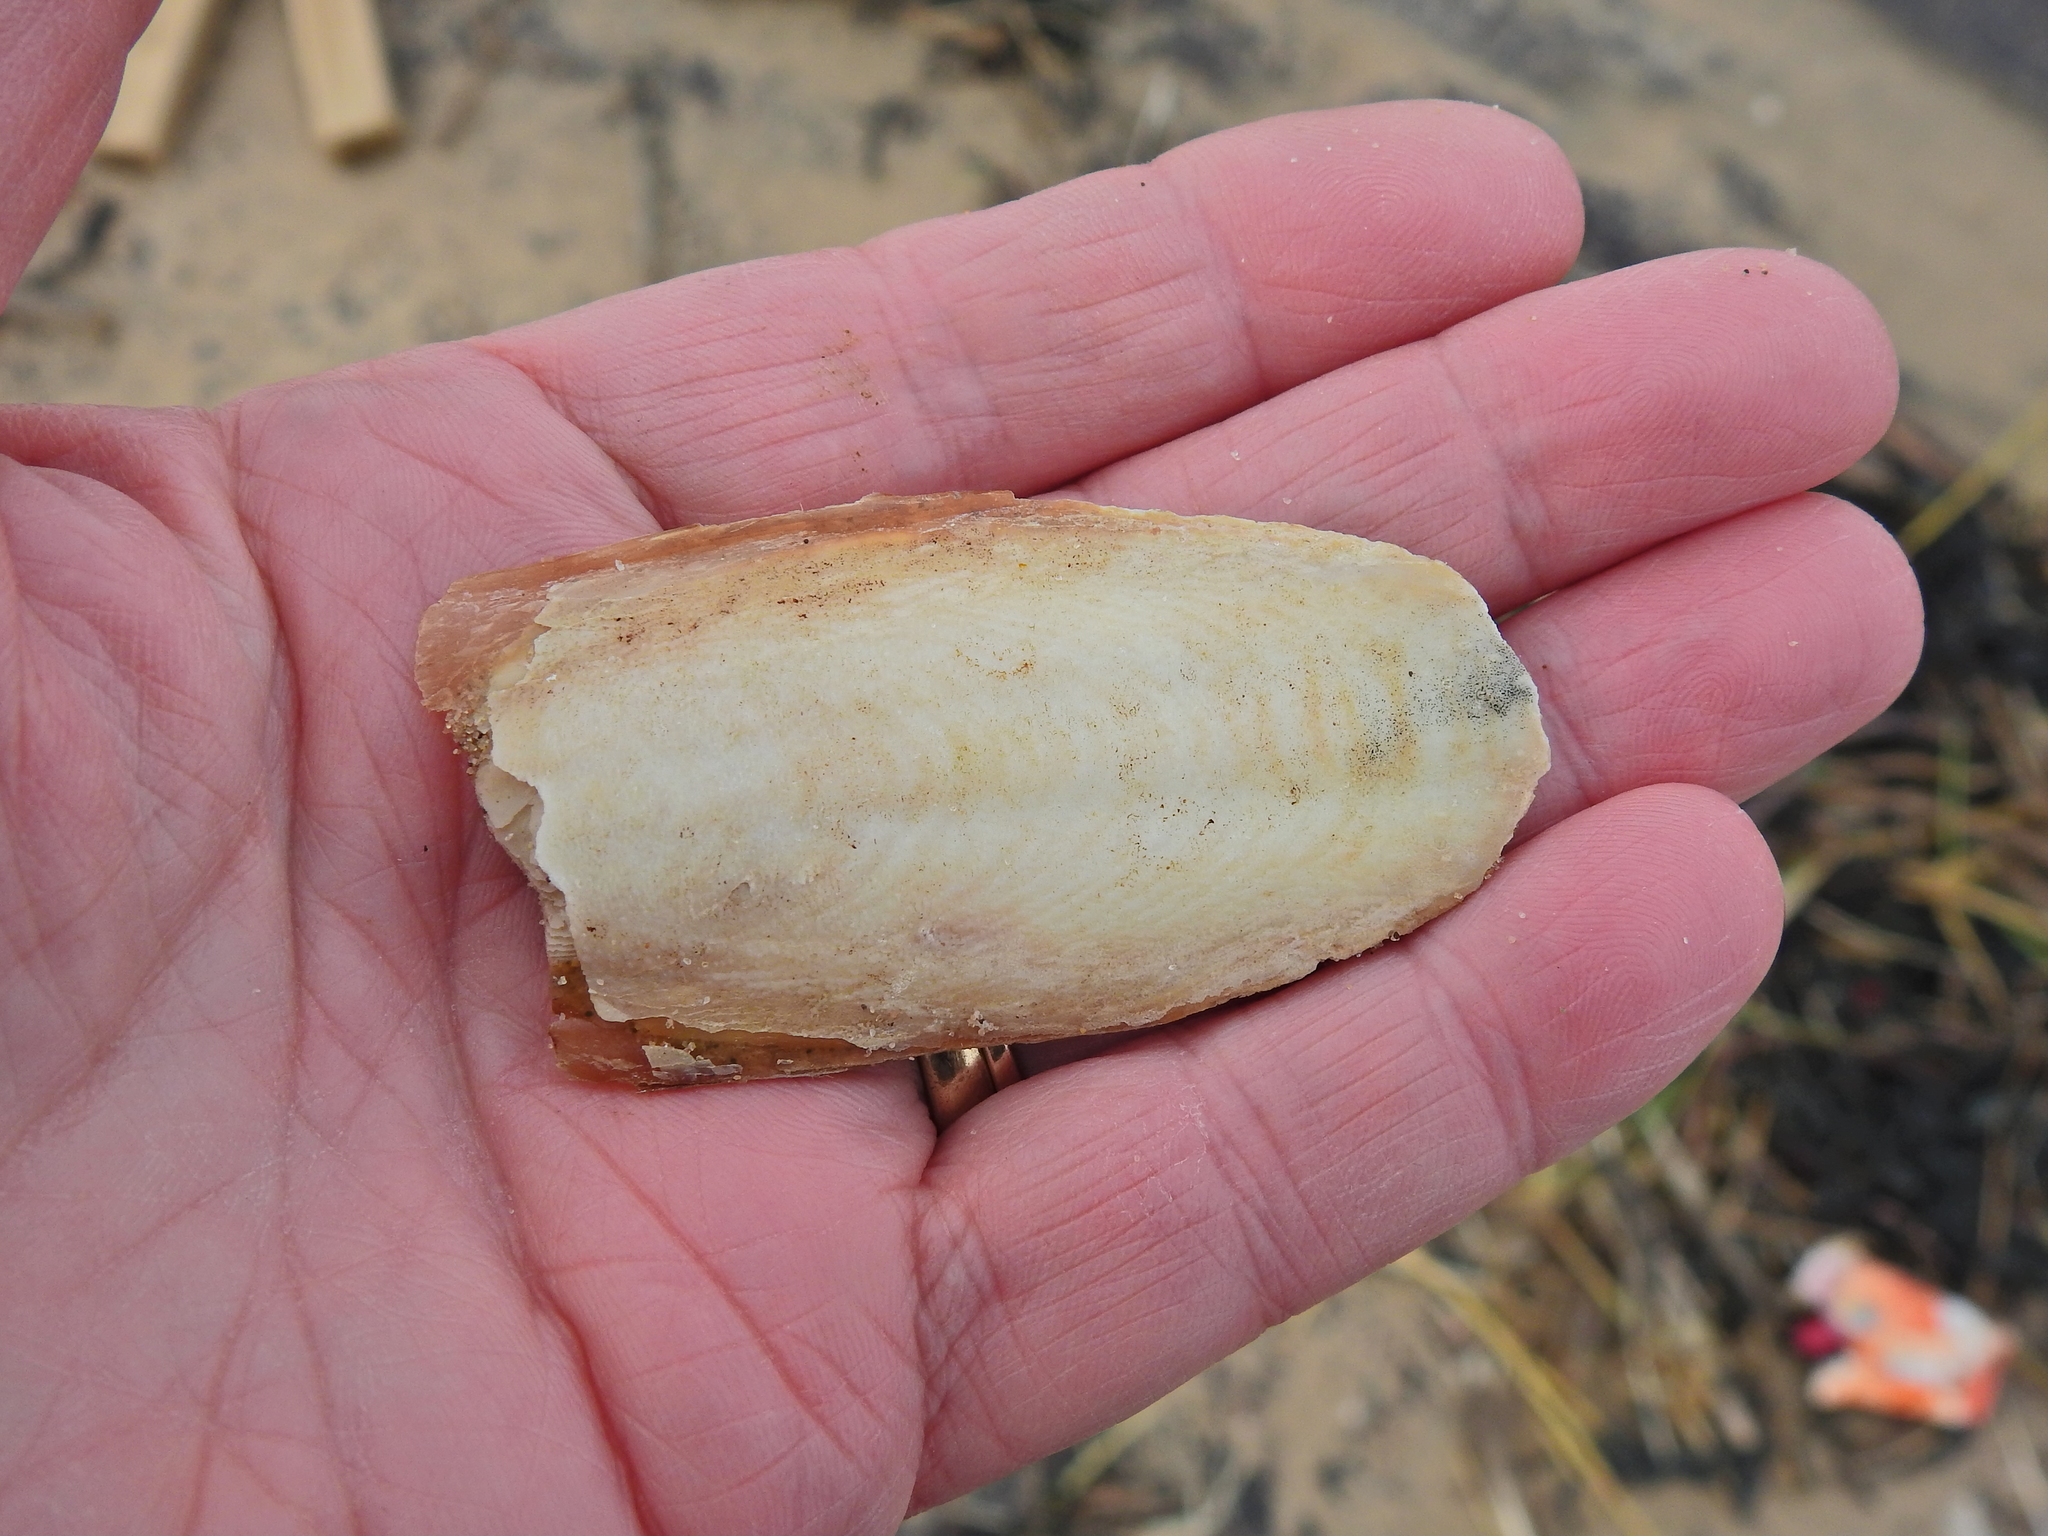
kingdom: Animalia
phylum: Mollusca
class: Cephalopoda
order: Sepiida
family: Sepiidae
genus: Sepia
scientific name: Sepia officinalis
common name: Common cuttlefish
